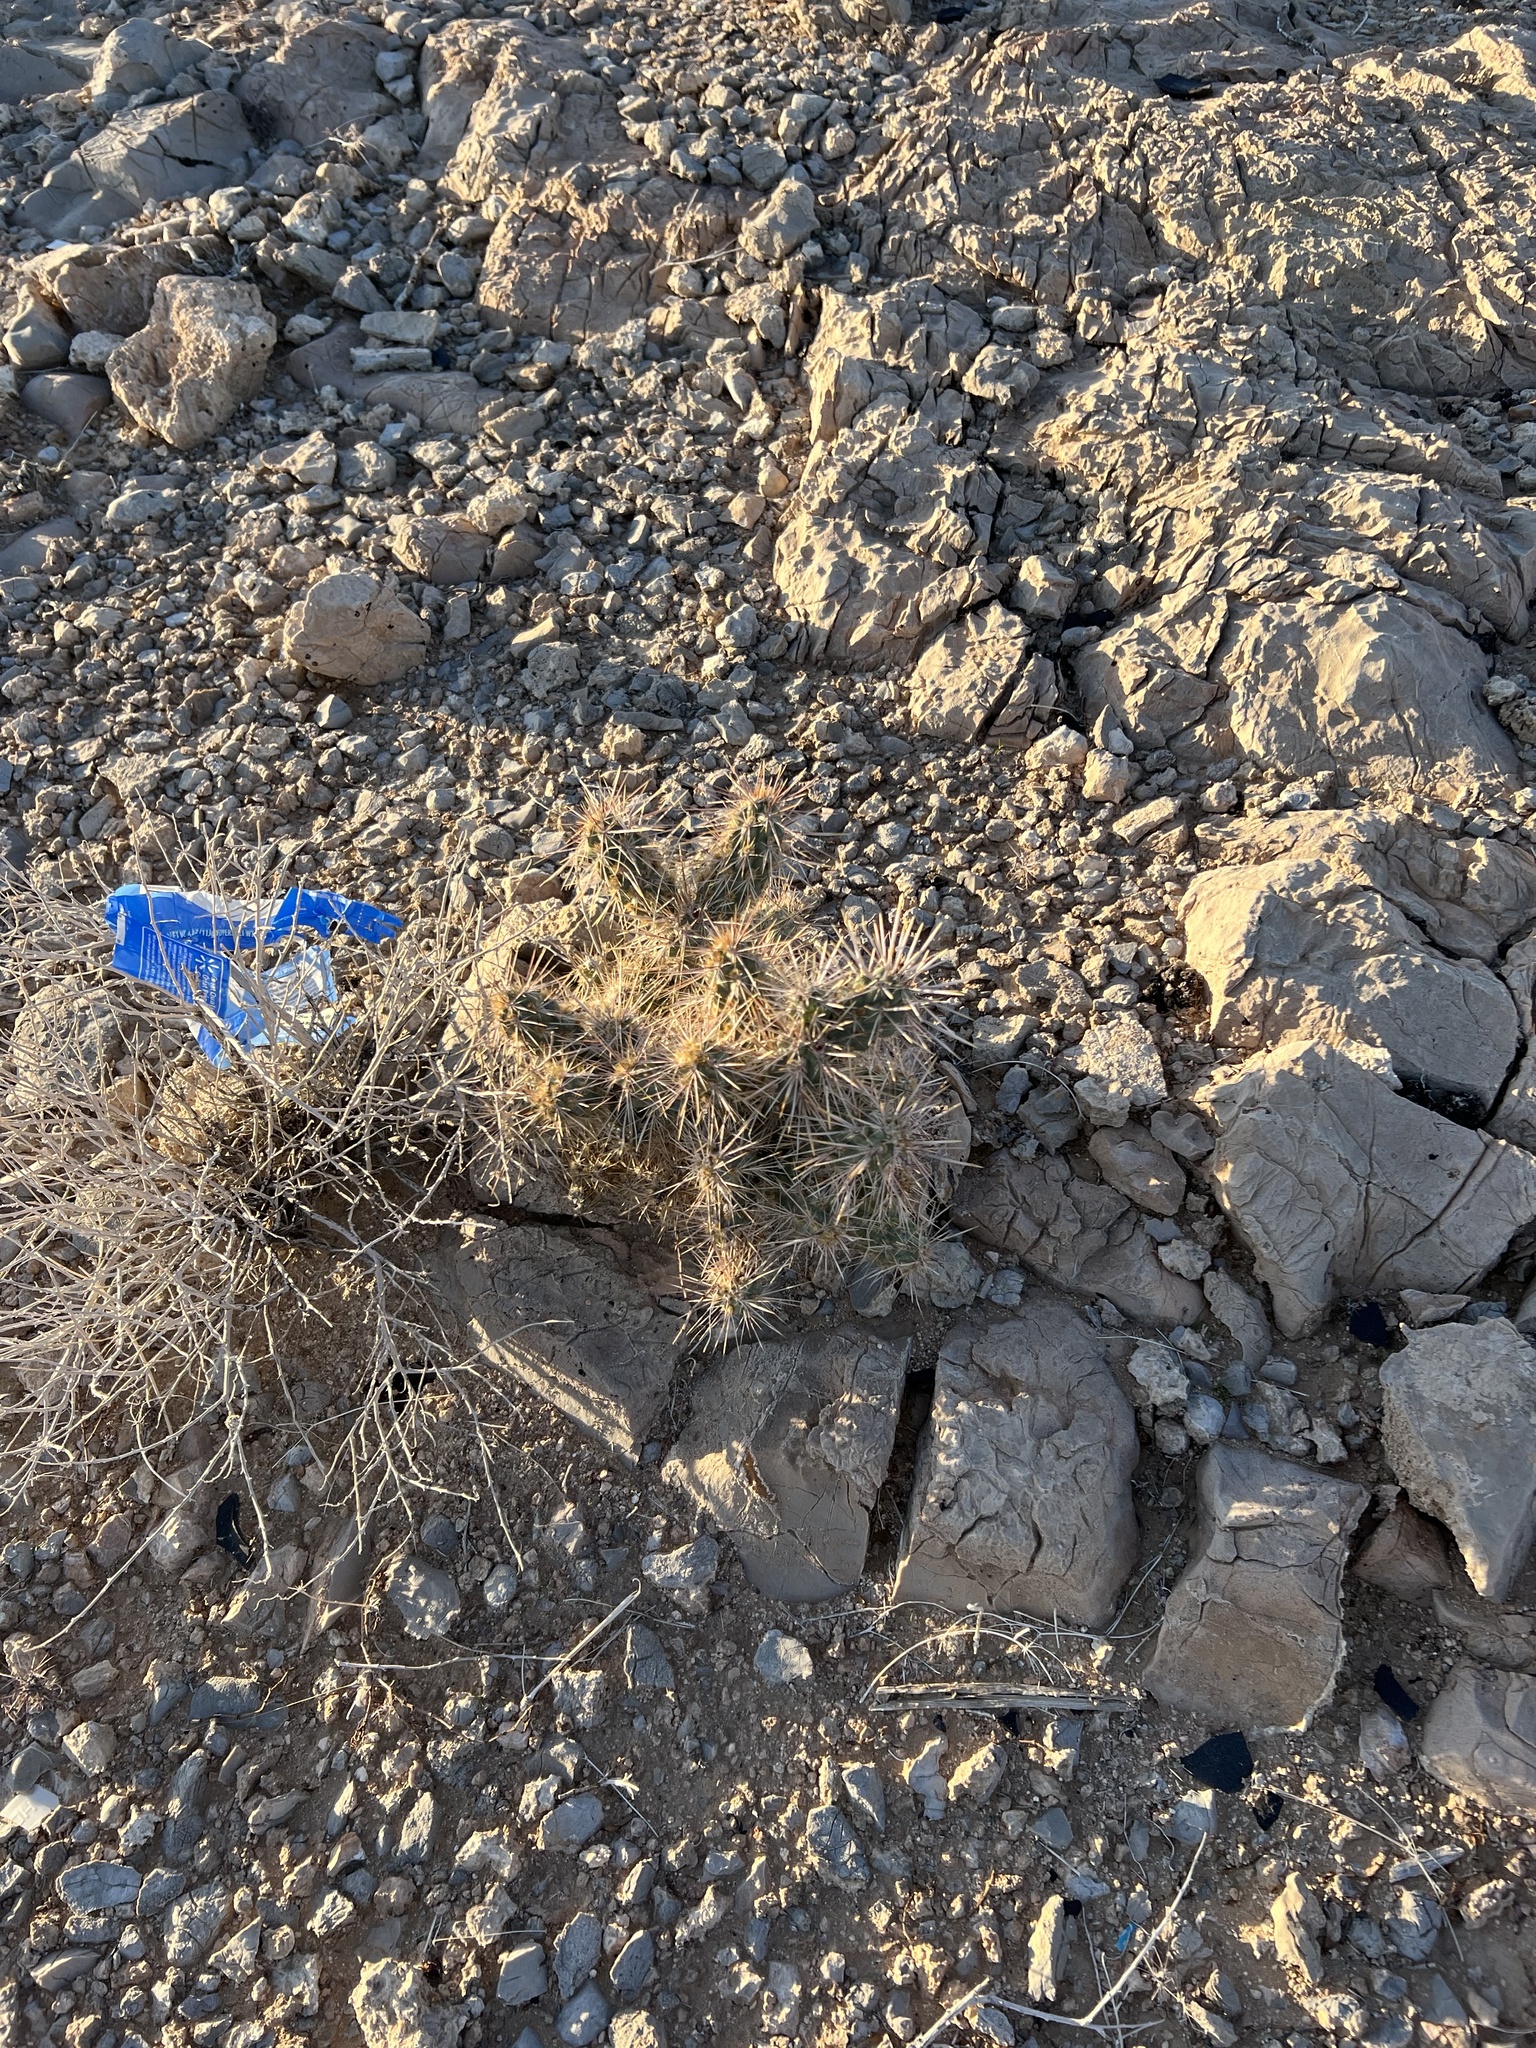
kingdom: Plantae
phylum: Tracheophyta
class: Magnoliopsida
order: Caryophyllales
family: Cactaceae
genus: Cylindropuntia
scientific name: Cylindropuntia echinocarpa
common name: Ground cholla
